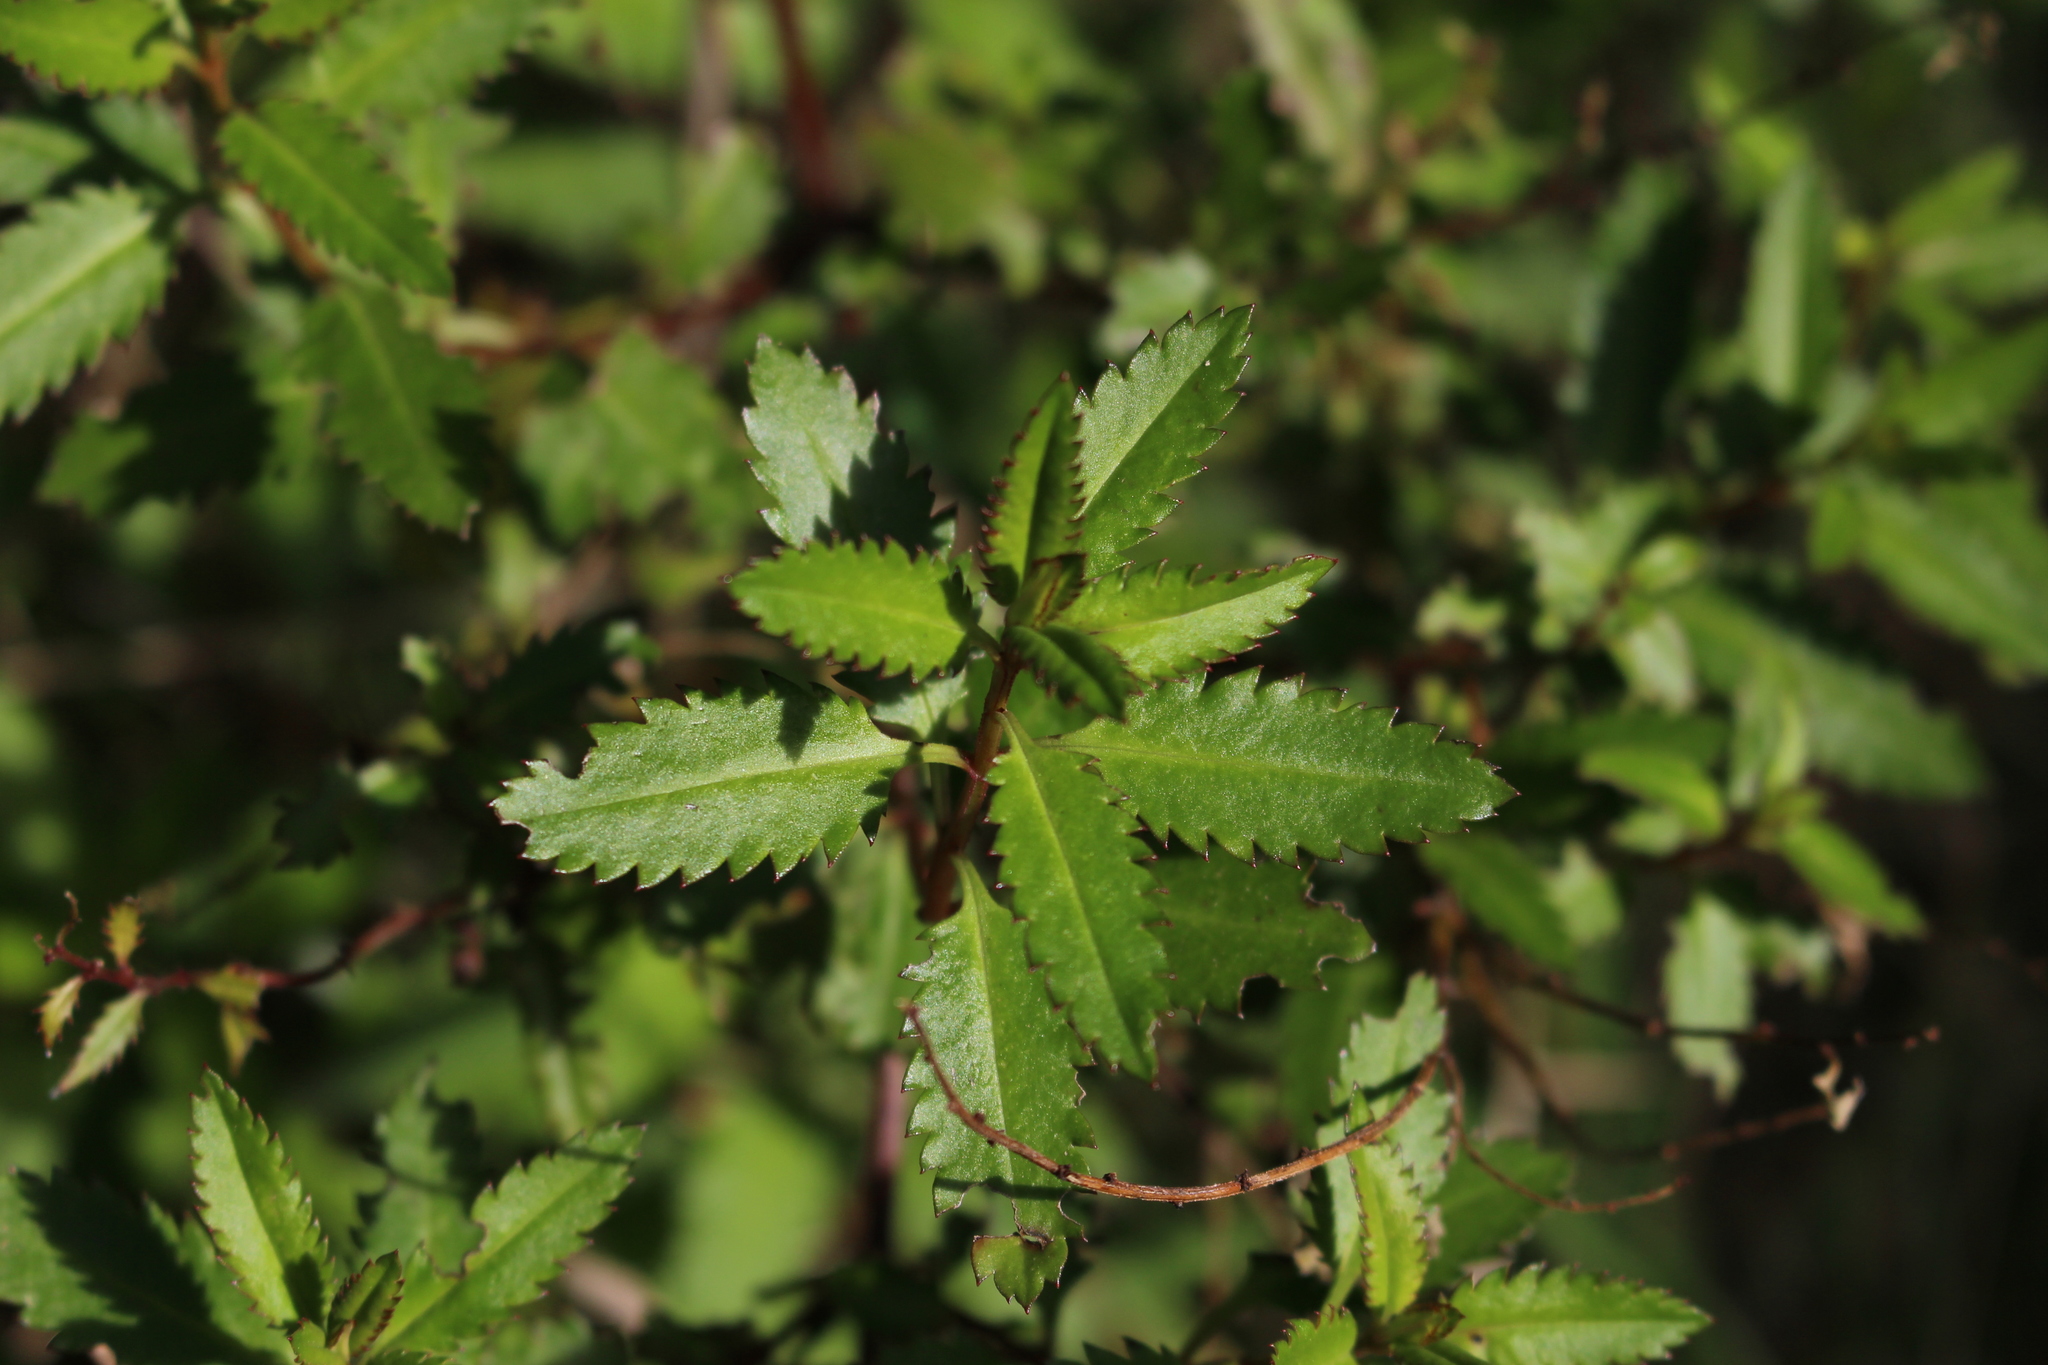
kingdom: Plantae
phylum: Tracheophyta
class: Magnoliopsida
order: Saxifragales
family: Haloragaceae
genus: Haloragis
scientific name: Haloragis erecta
